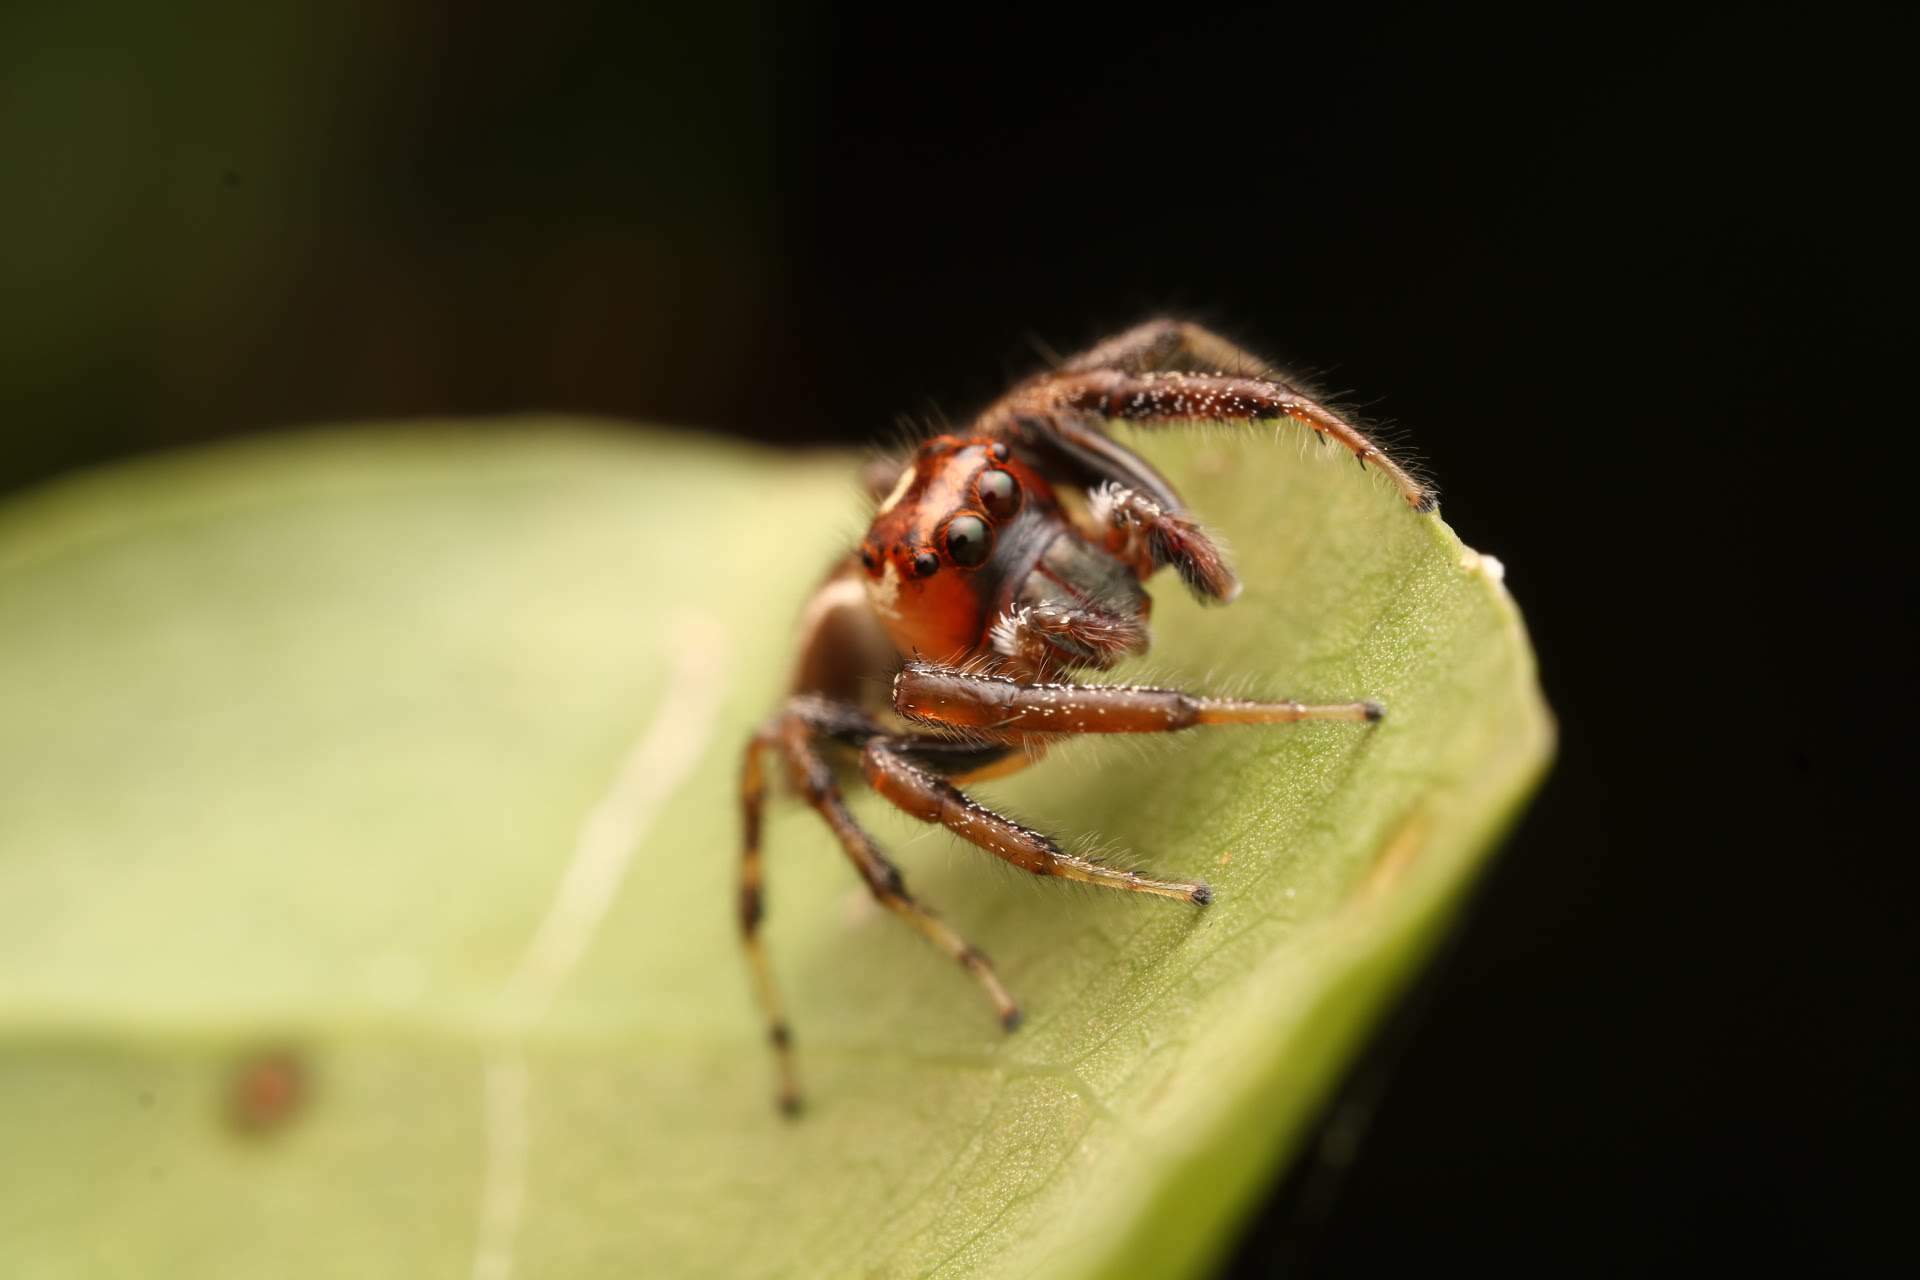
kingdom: Animalia
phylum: Arthropoda
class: Arachnida
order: Araneae
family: Salticidae
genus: Colonus
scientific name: Colonus sylvanus
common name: Jumping spiders
